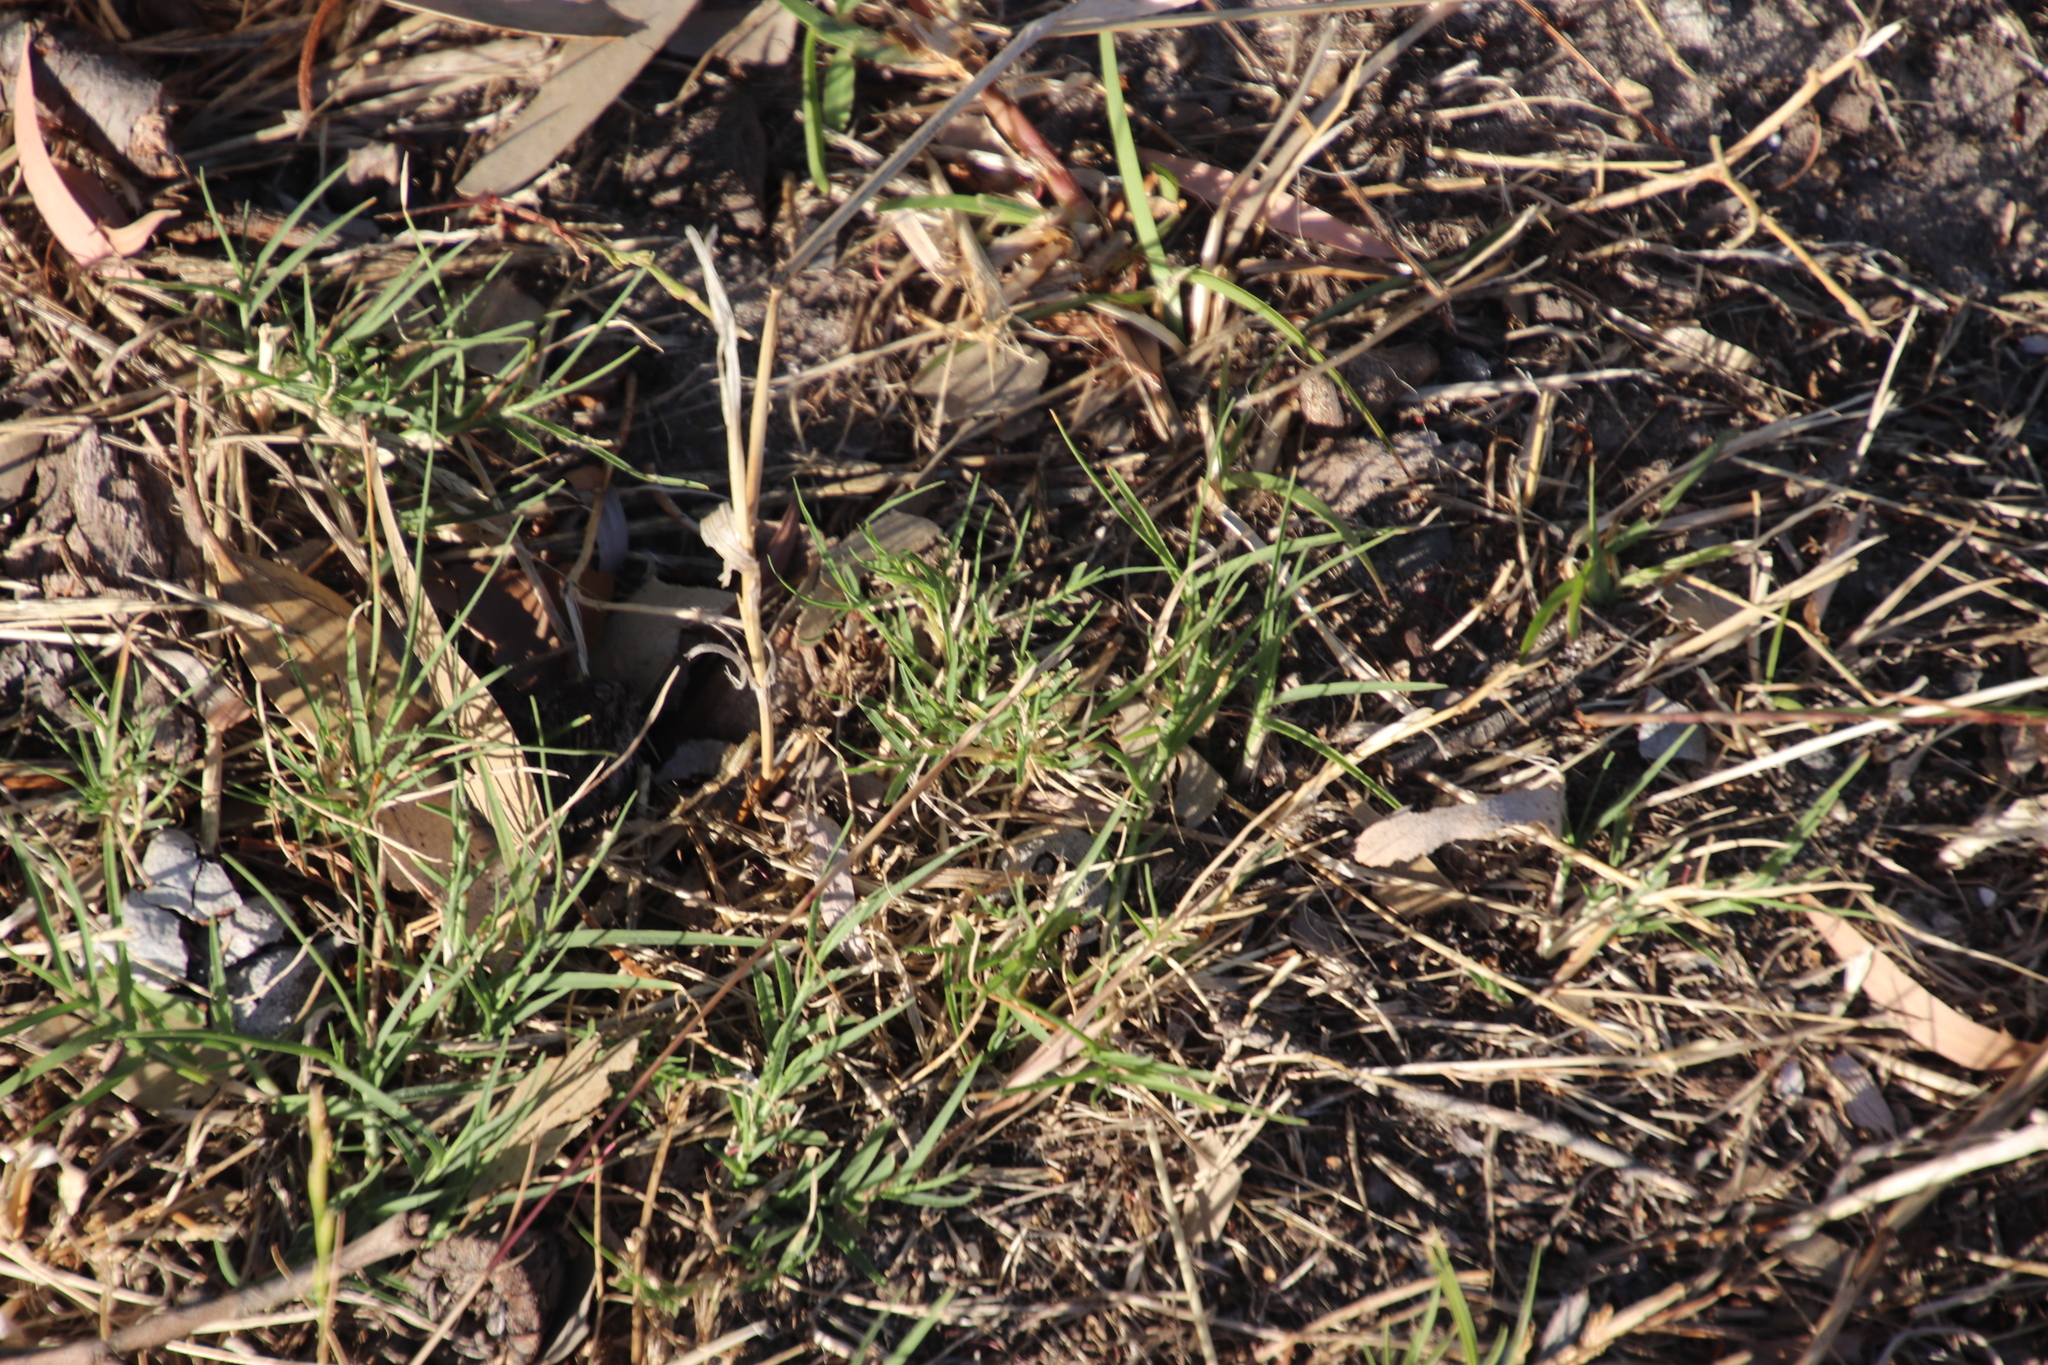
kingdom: Plantae
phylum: Tracheophyta
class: Liliopsida
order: Poales
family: Poaceae
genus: Cynodon
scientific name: Cynodon dactylon
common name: Bermuda grass
